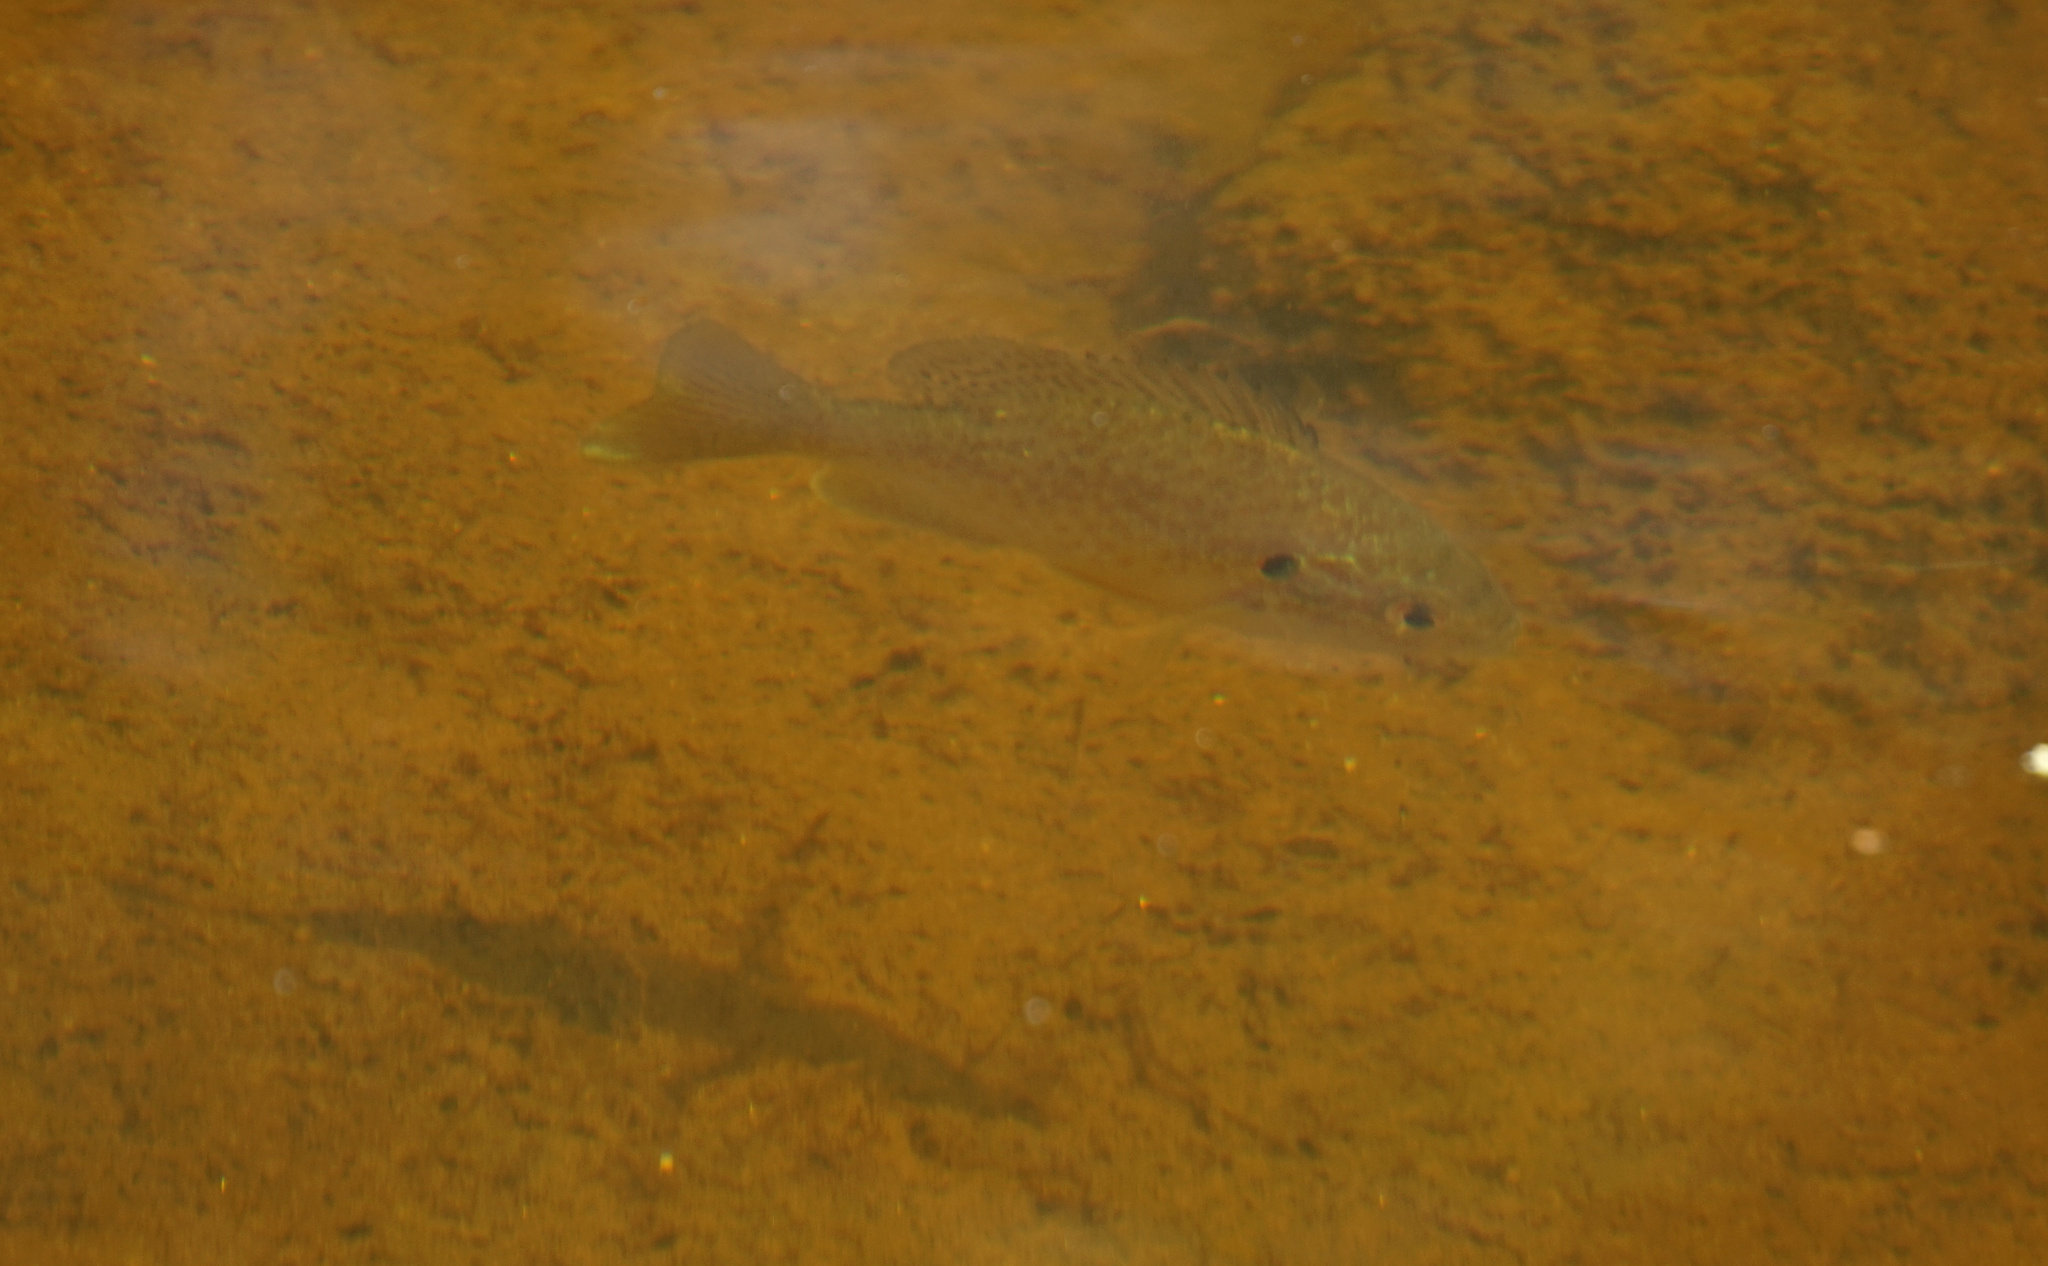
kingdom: Animalia
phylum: Chordata
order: Perciformes
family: Centrarchidae
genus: Lepomis
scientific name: Lepomis gibbosus
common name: Pumpkinseed
